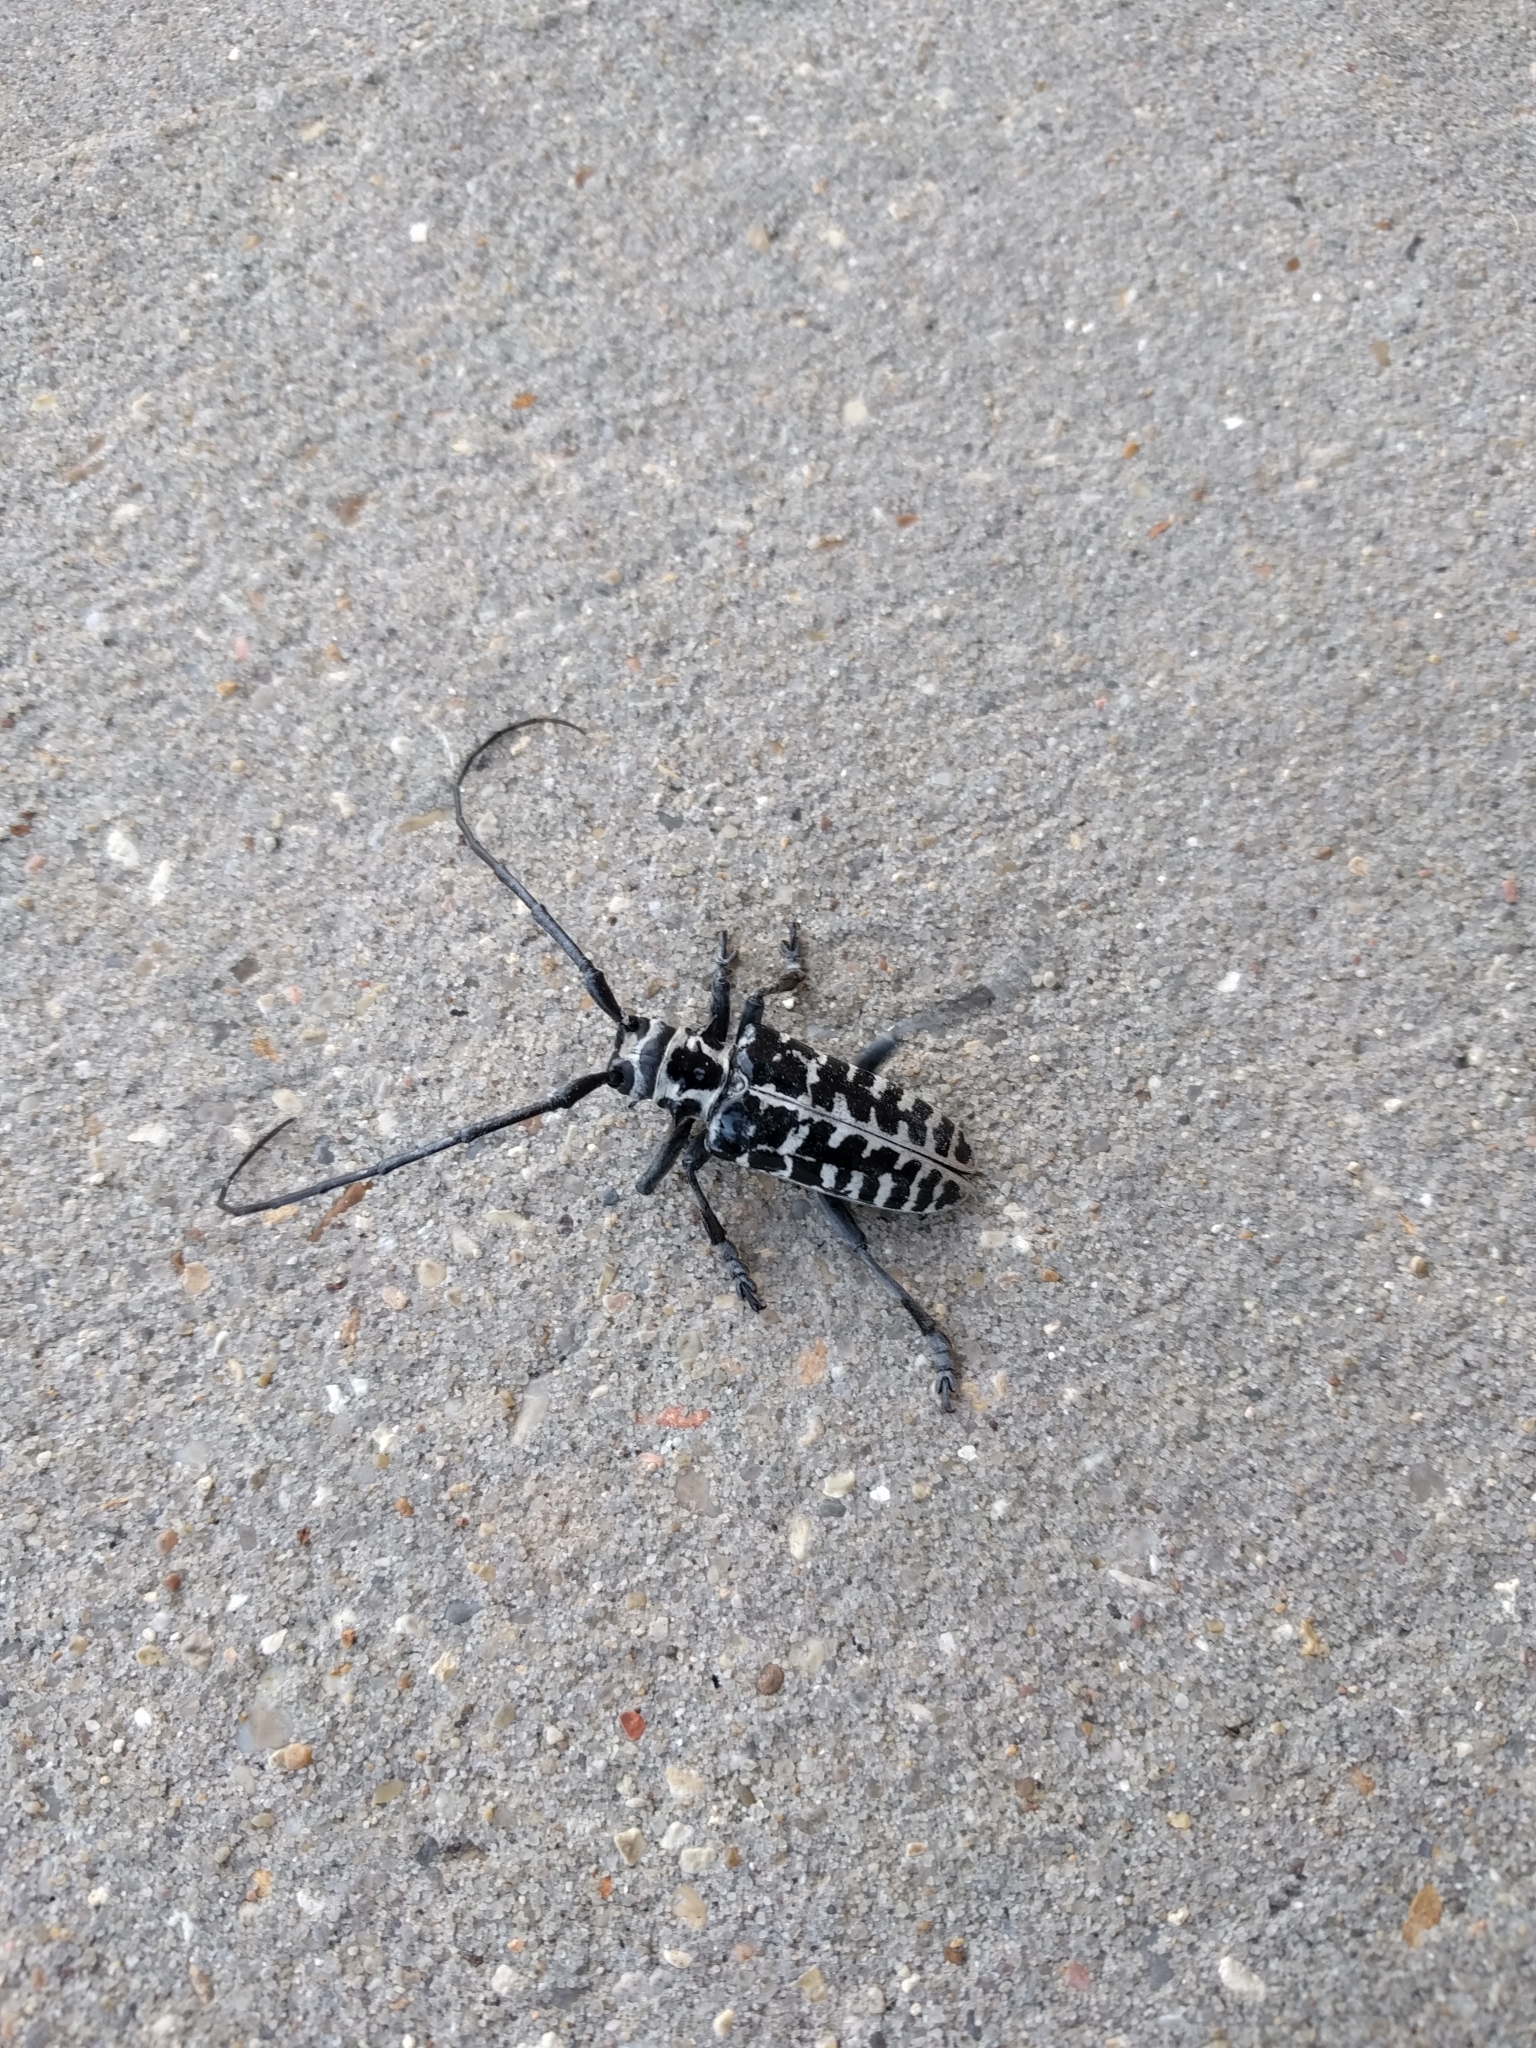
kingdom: Animalia
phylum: Arthropoda
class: Insecta
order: Coleoptera
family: Cerambycidae
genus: Plectrodera
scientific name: Plectrodera scalator
